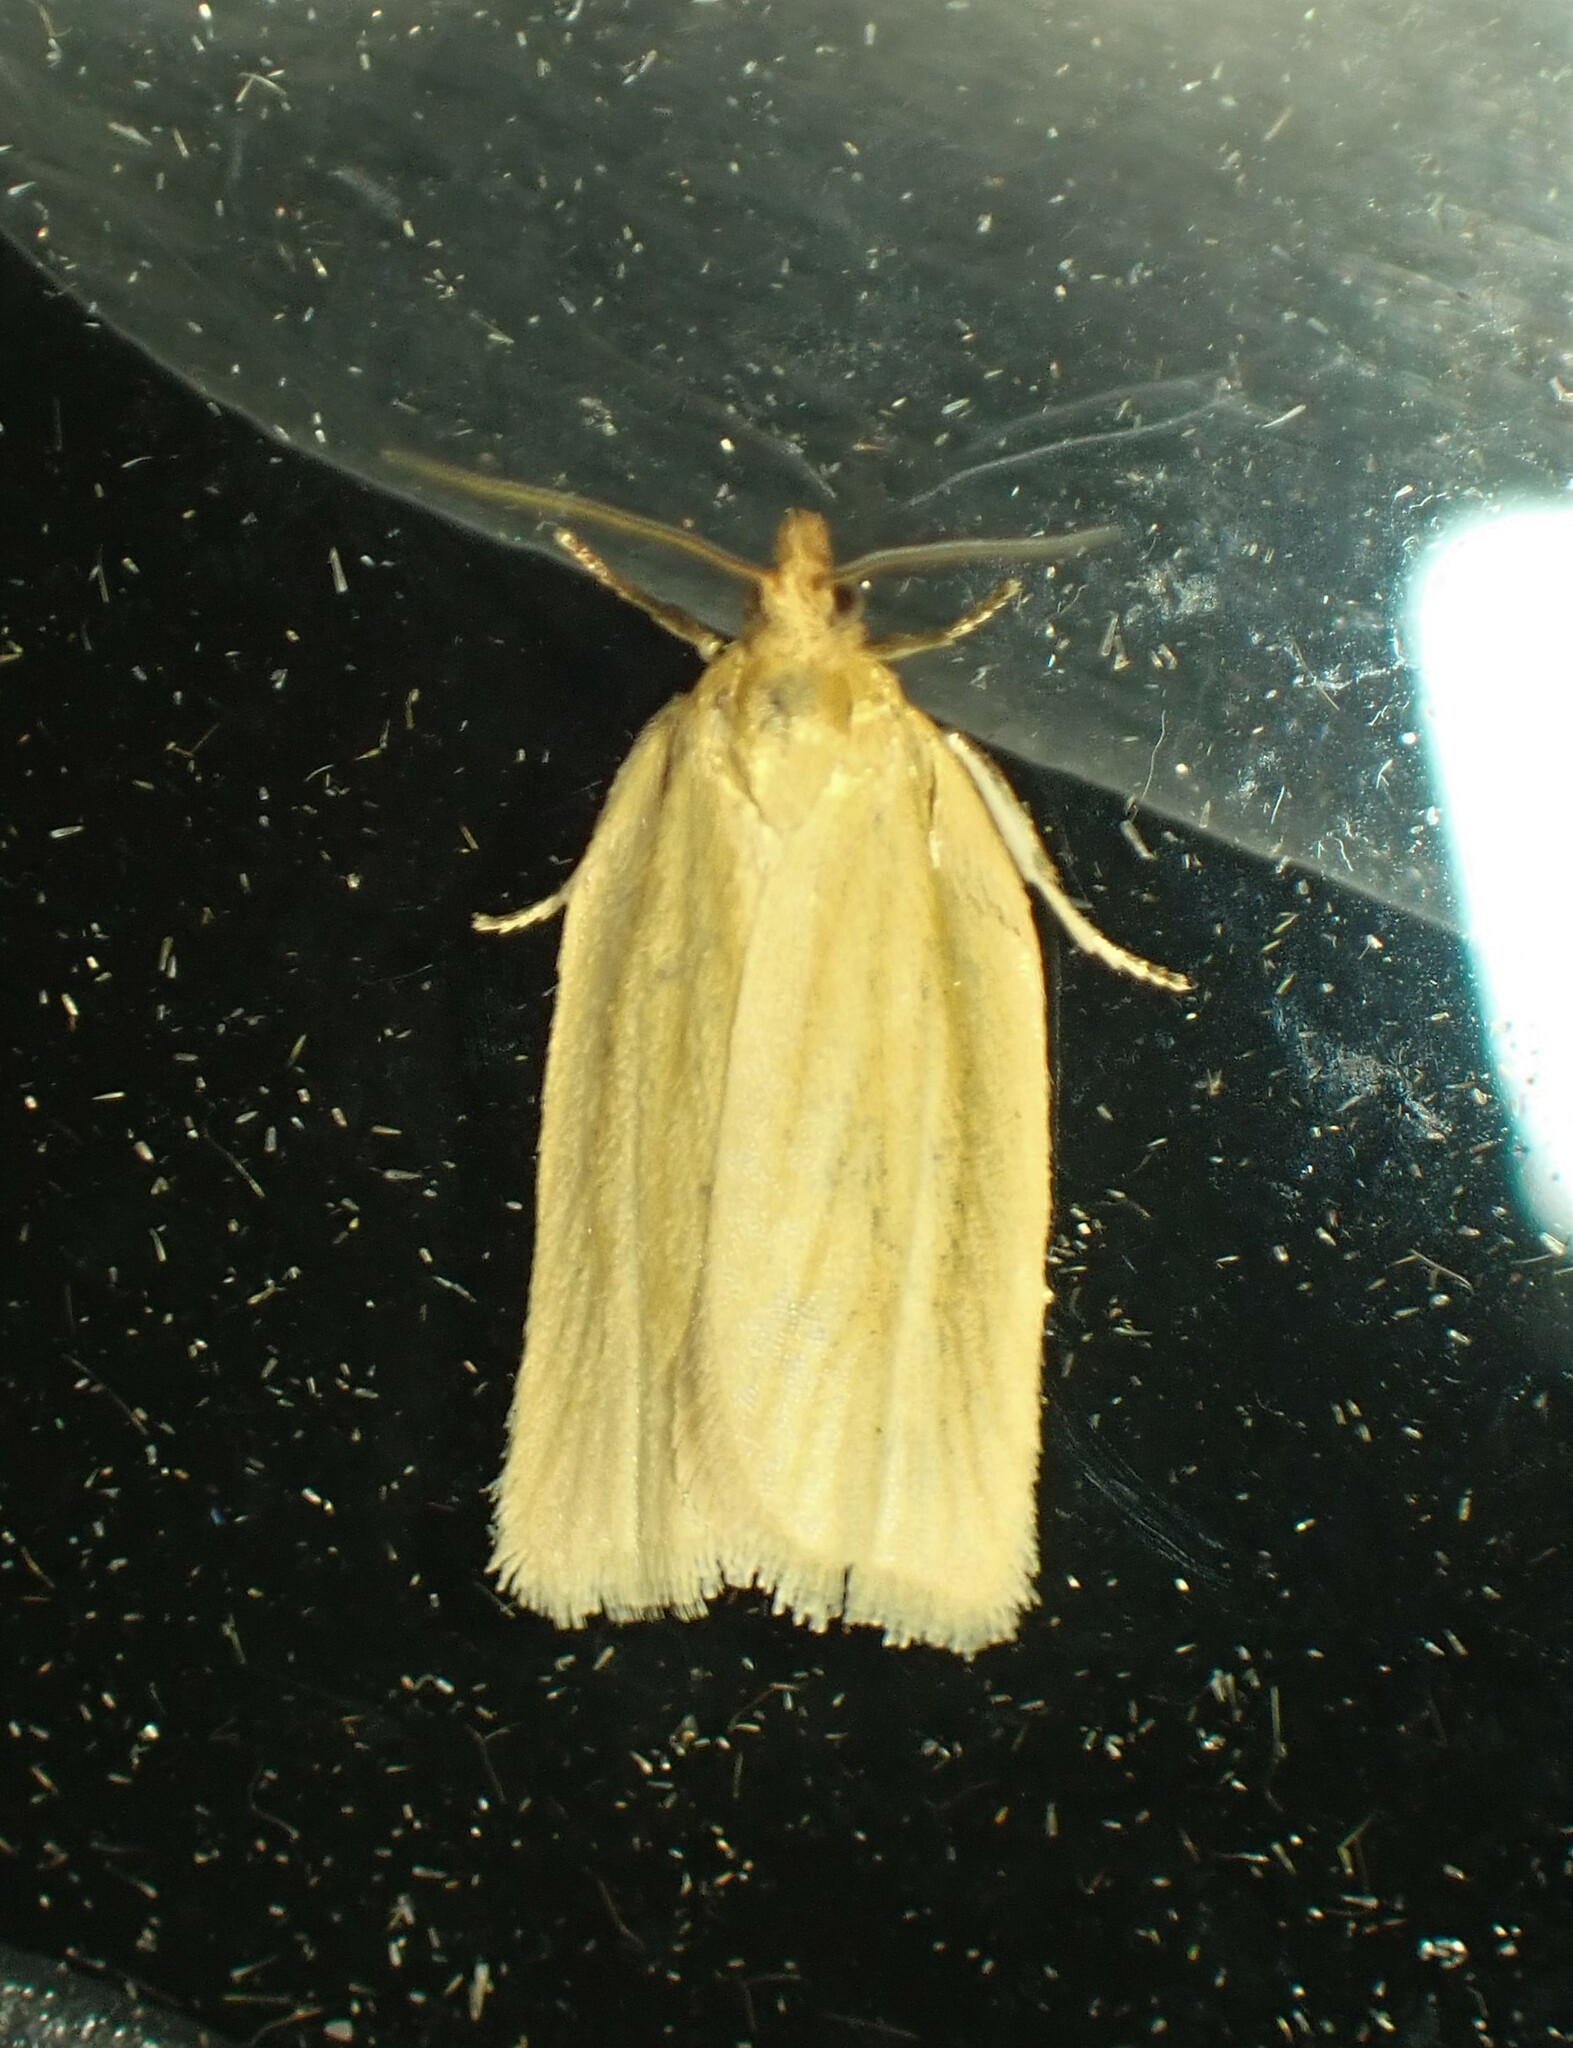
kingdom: Animalia
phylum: Arthropoda
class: Insecta
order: Lepidoptera
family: Tortricidae
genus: Clepsis
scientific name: Clepsis clemensiana
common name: Clemens' clepsis moth
